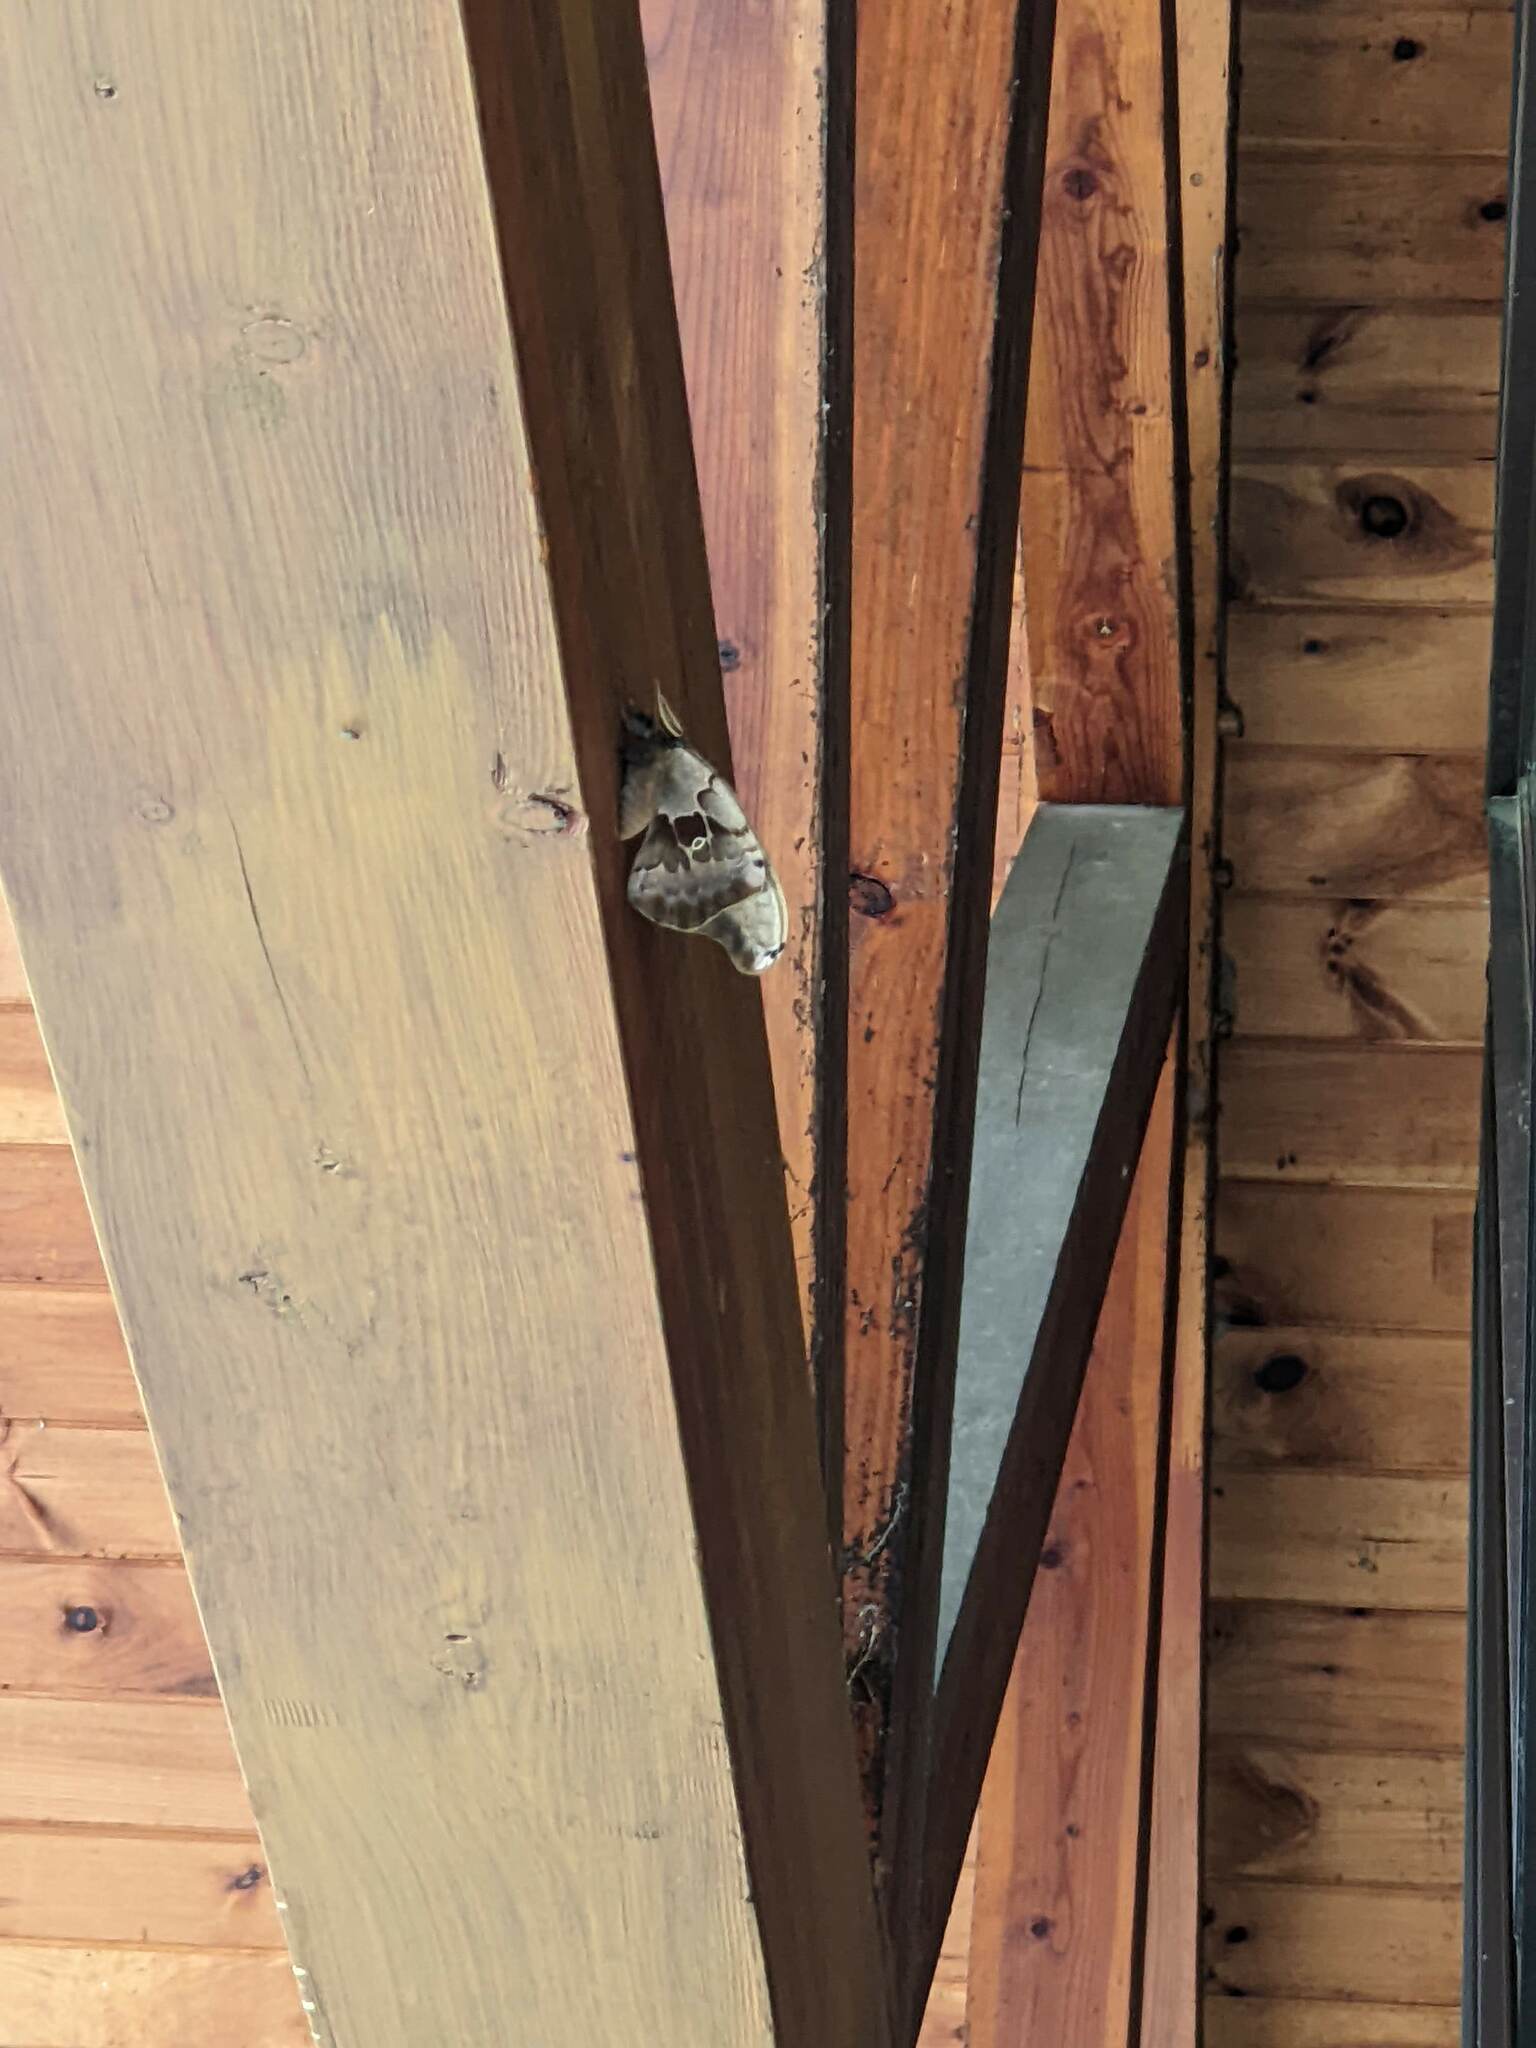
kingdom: Animalia
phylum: Arthropoda
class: Insecta
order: Lepidoptera
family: Saturniidae
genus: Antheraea
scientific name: Antheraea polyphemus
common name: Polyphemus moth
